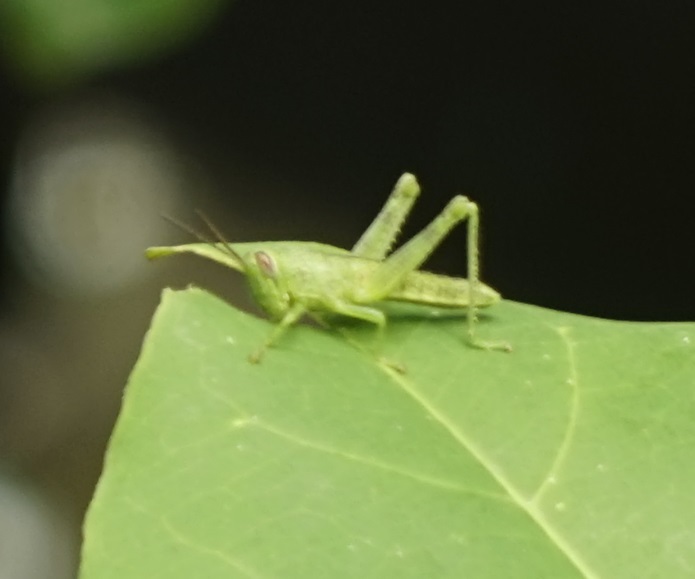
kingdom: Animalia
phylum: Arthropoda
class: Insecta
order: Orthoptera
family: Acrididae
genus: Valanga
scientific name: Valanga nigricornis
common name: Javanese bird grasshopper
